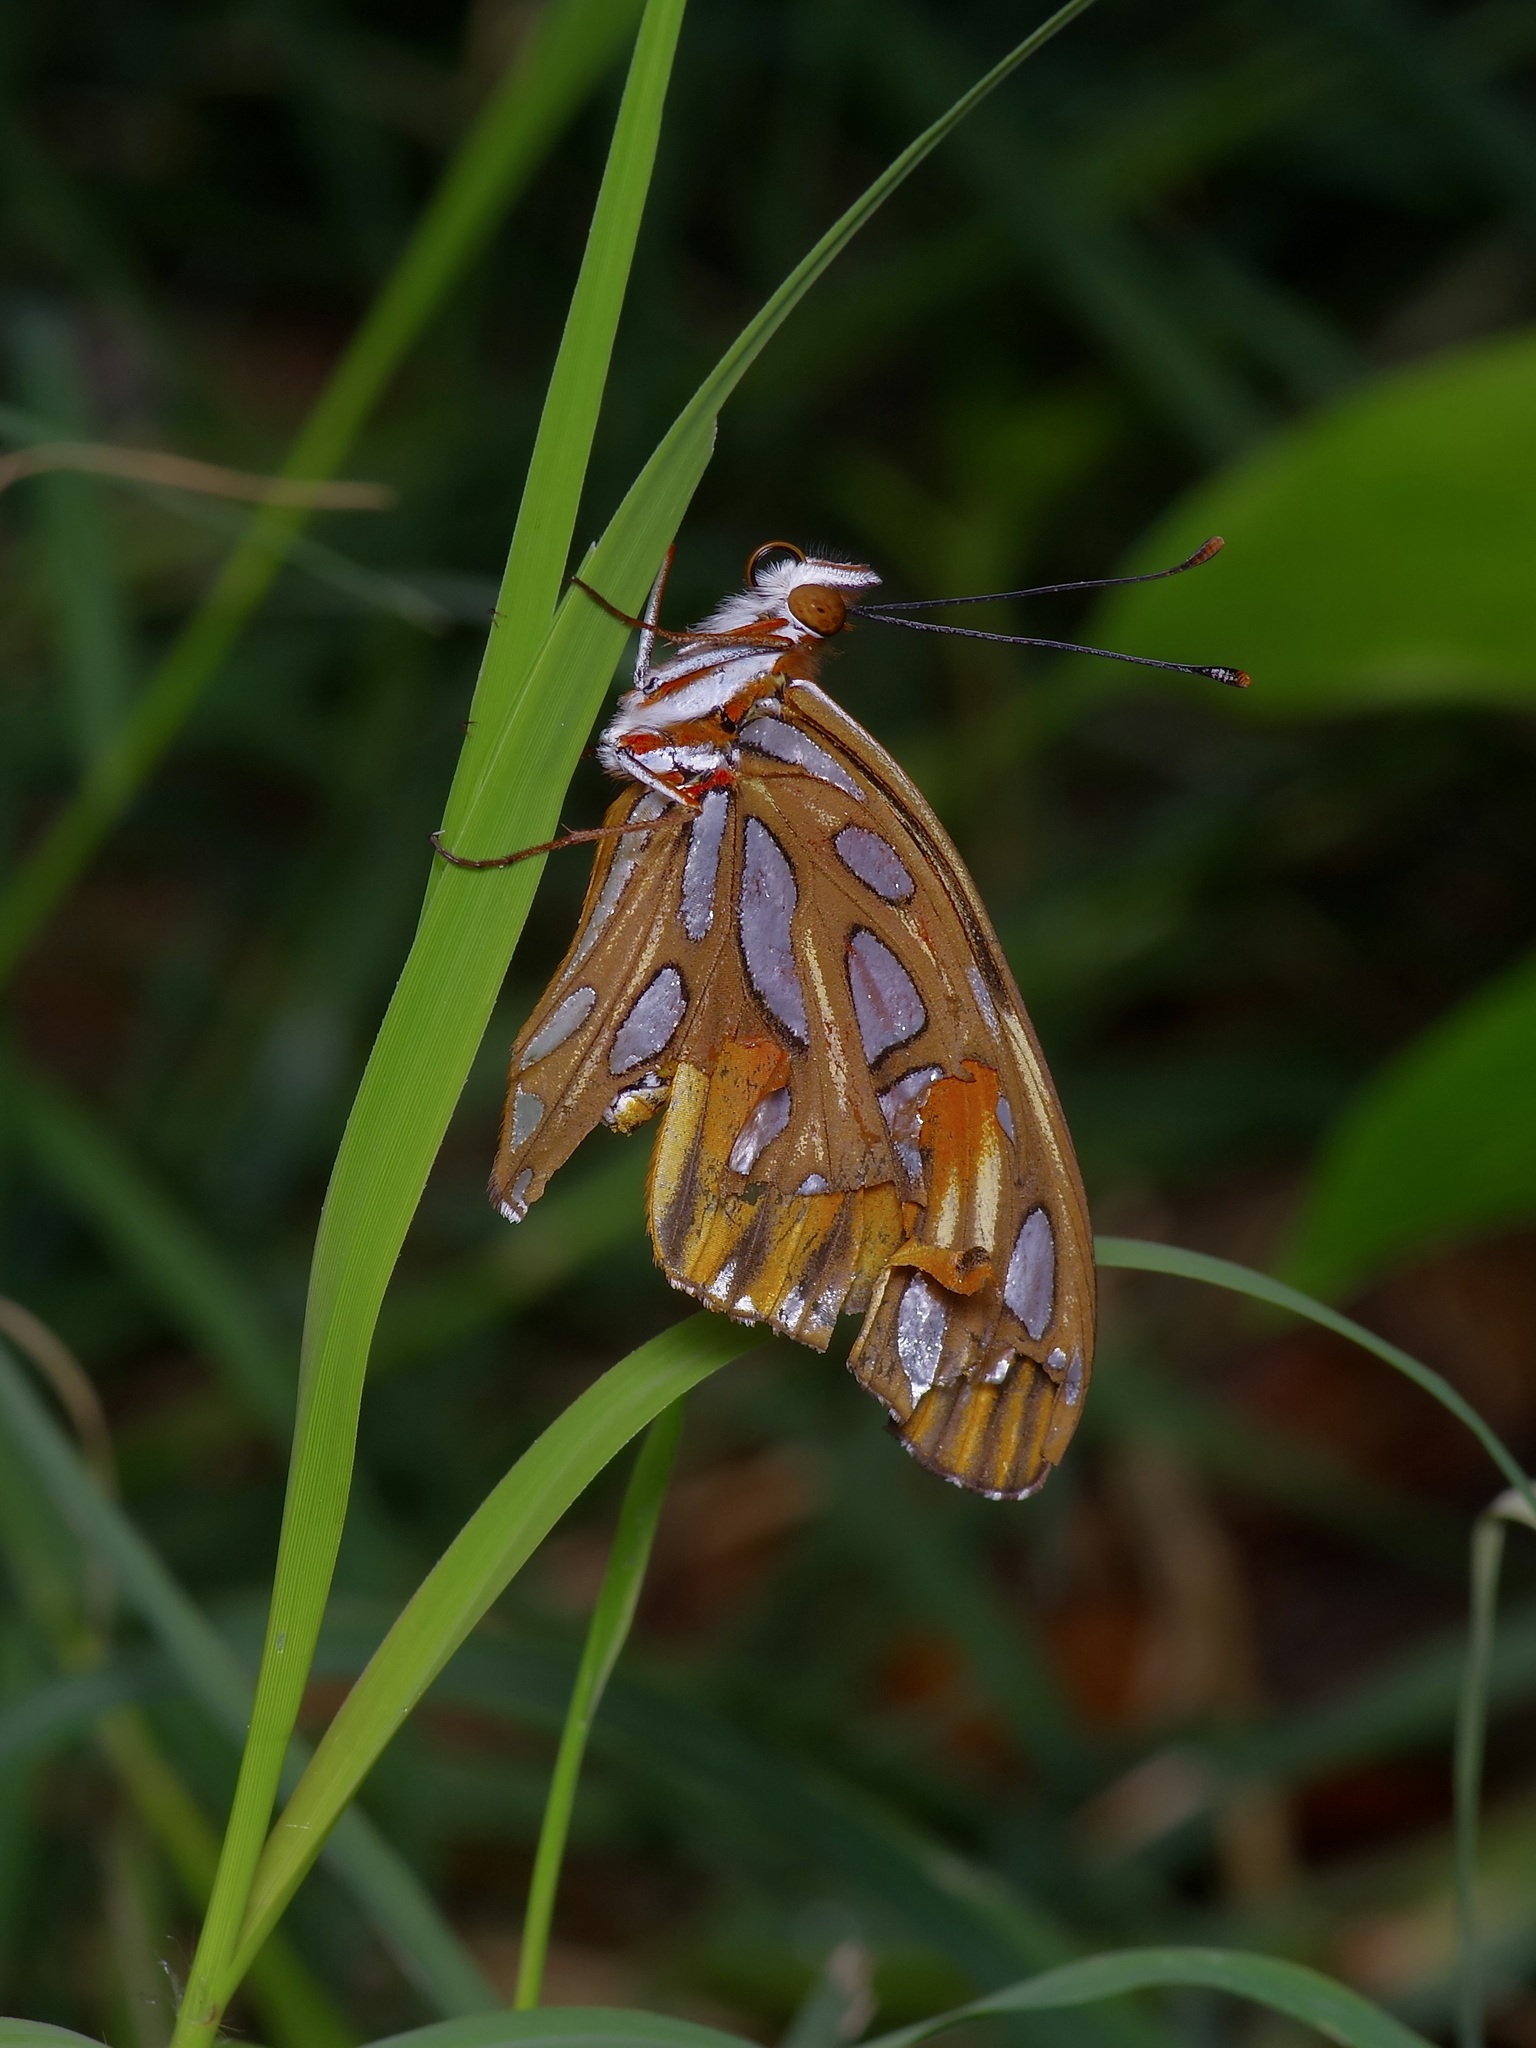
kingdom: Animalia
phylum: Arthropoda
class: Insecta
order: Lepidoptera
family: Nymphalidae
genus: Dione
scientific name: Dione vanillae
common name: Gulf fritillary
